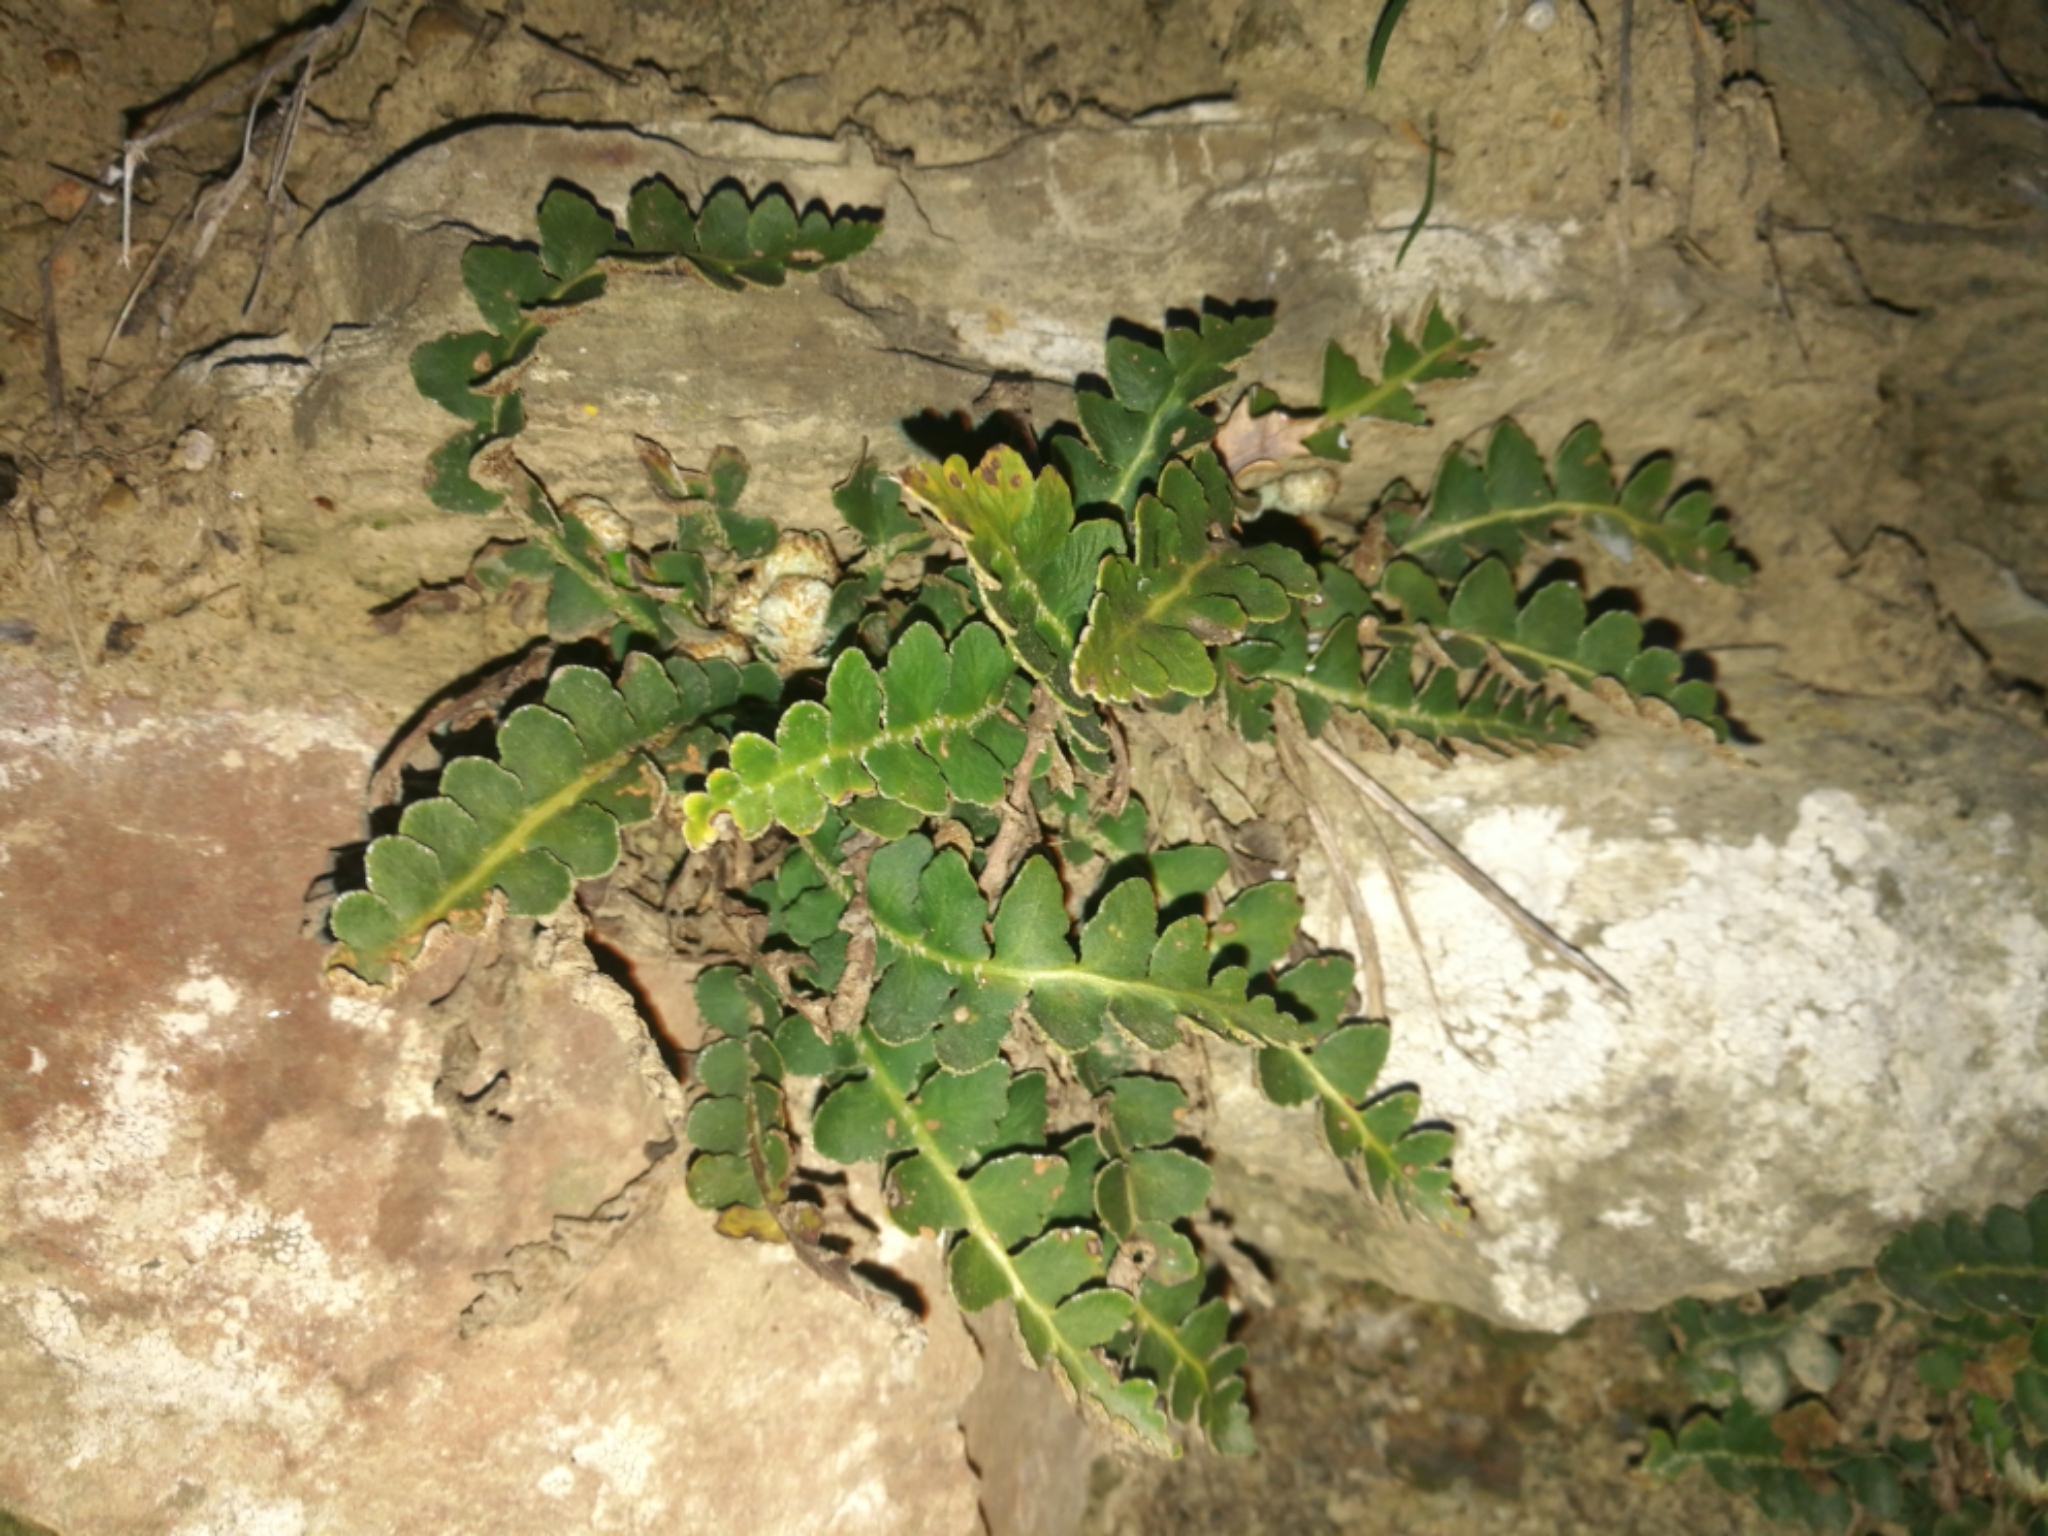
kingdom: Plantae
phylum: Tracheophyta
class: Polypodiopsida
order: Polypodiales
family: Aspleniaceae
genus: Asplenium
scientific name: Asplenium ceterach
